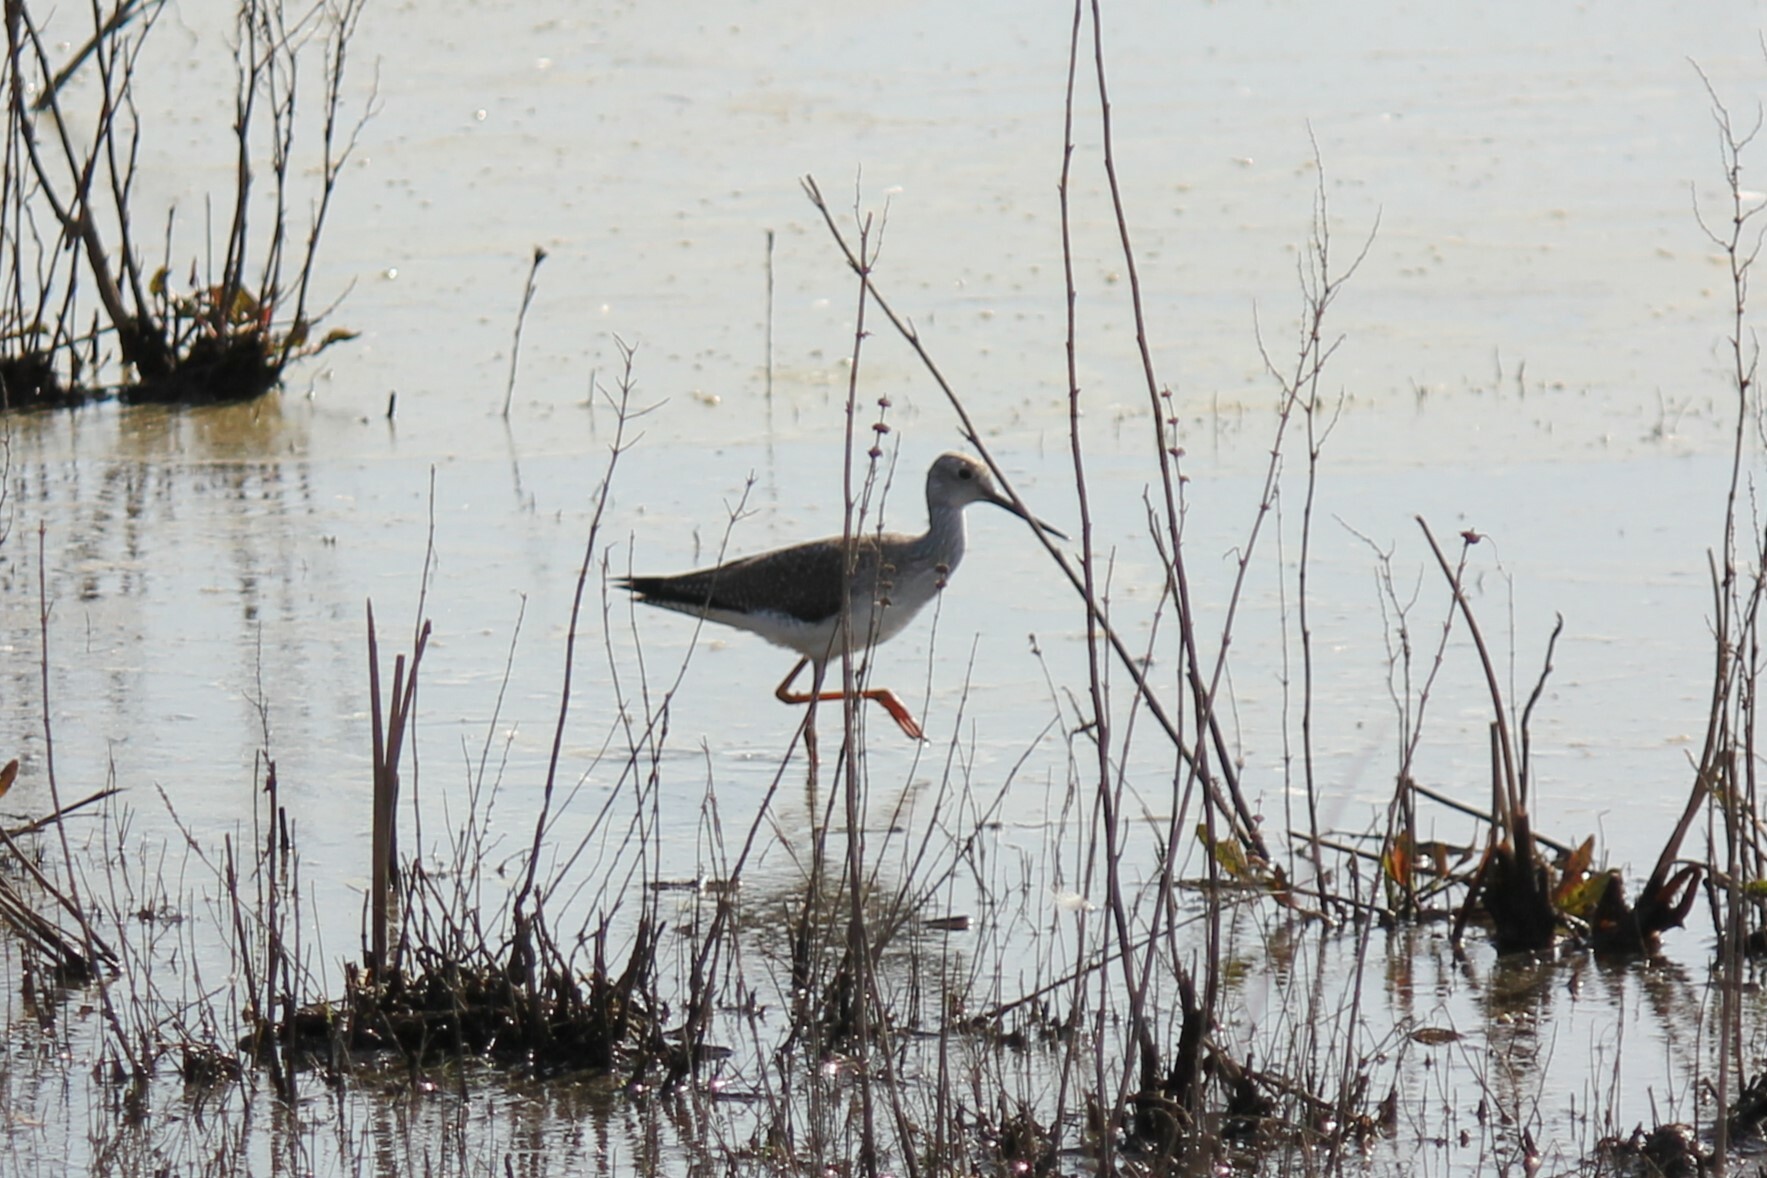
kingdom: Animalia
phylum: Chordata
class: Aves
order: Charadriiformes
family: Scolopacidae
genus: Tringa
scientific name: Tringa melanoleuca
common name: Greater yellowlegs
